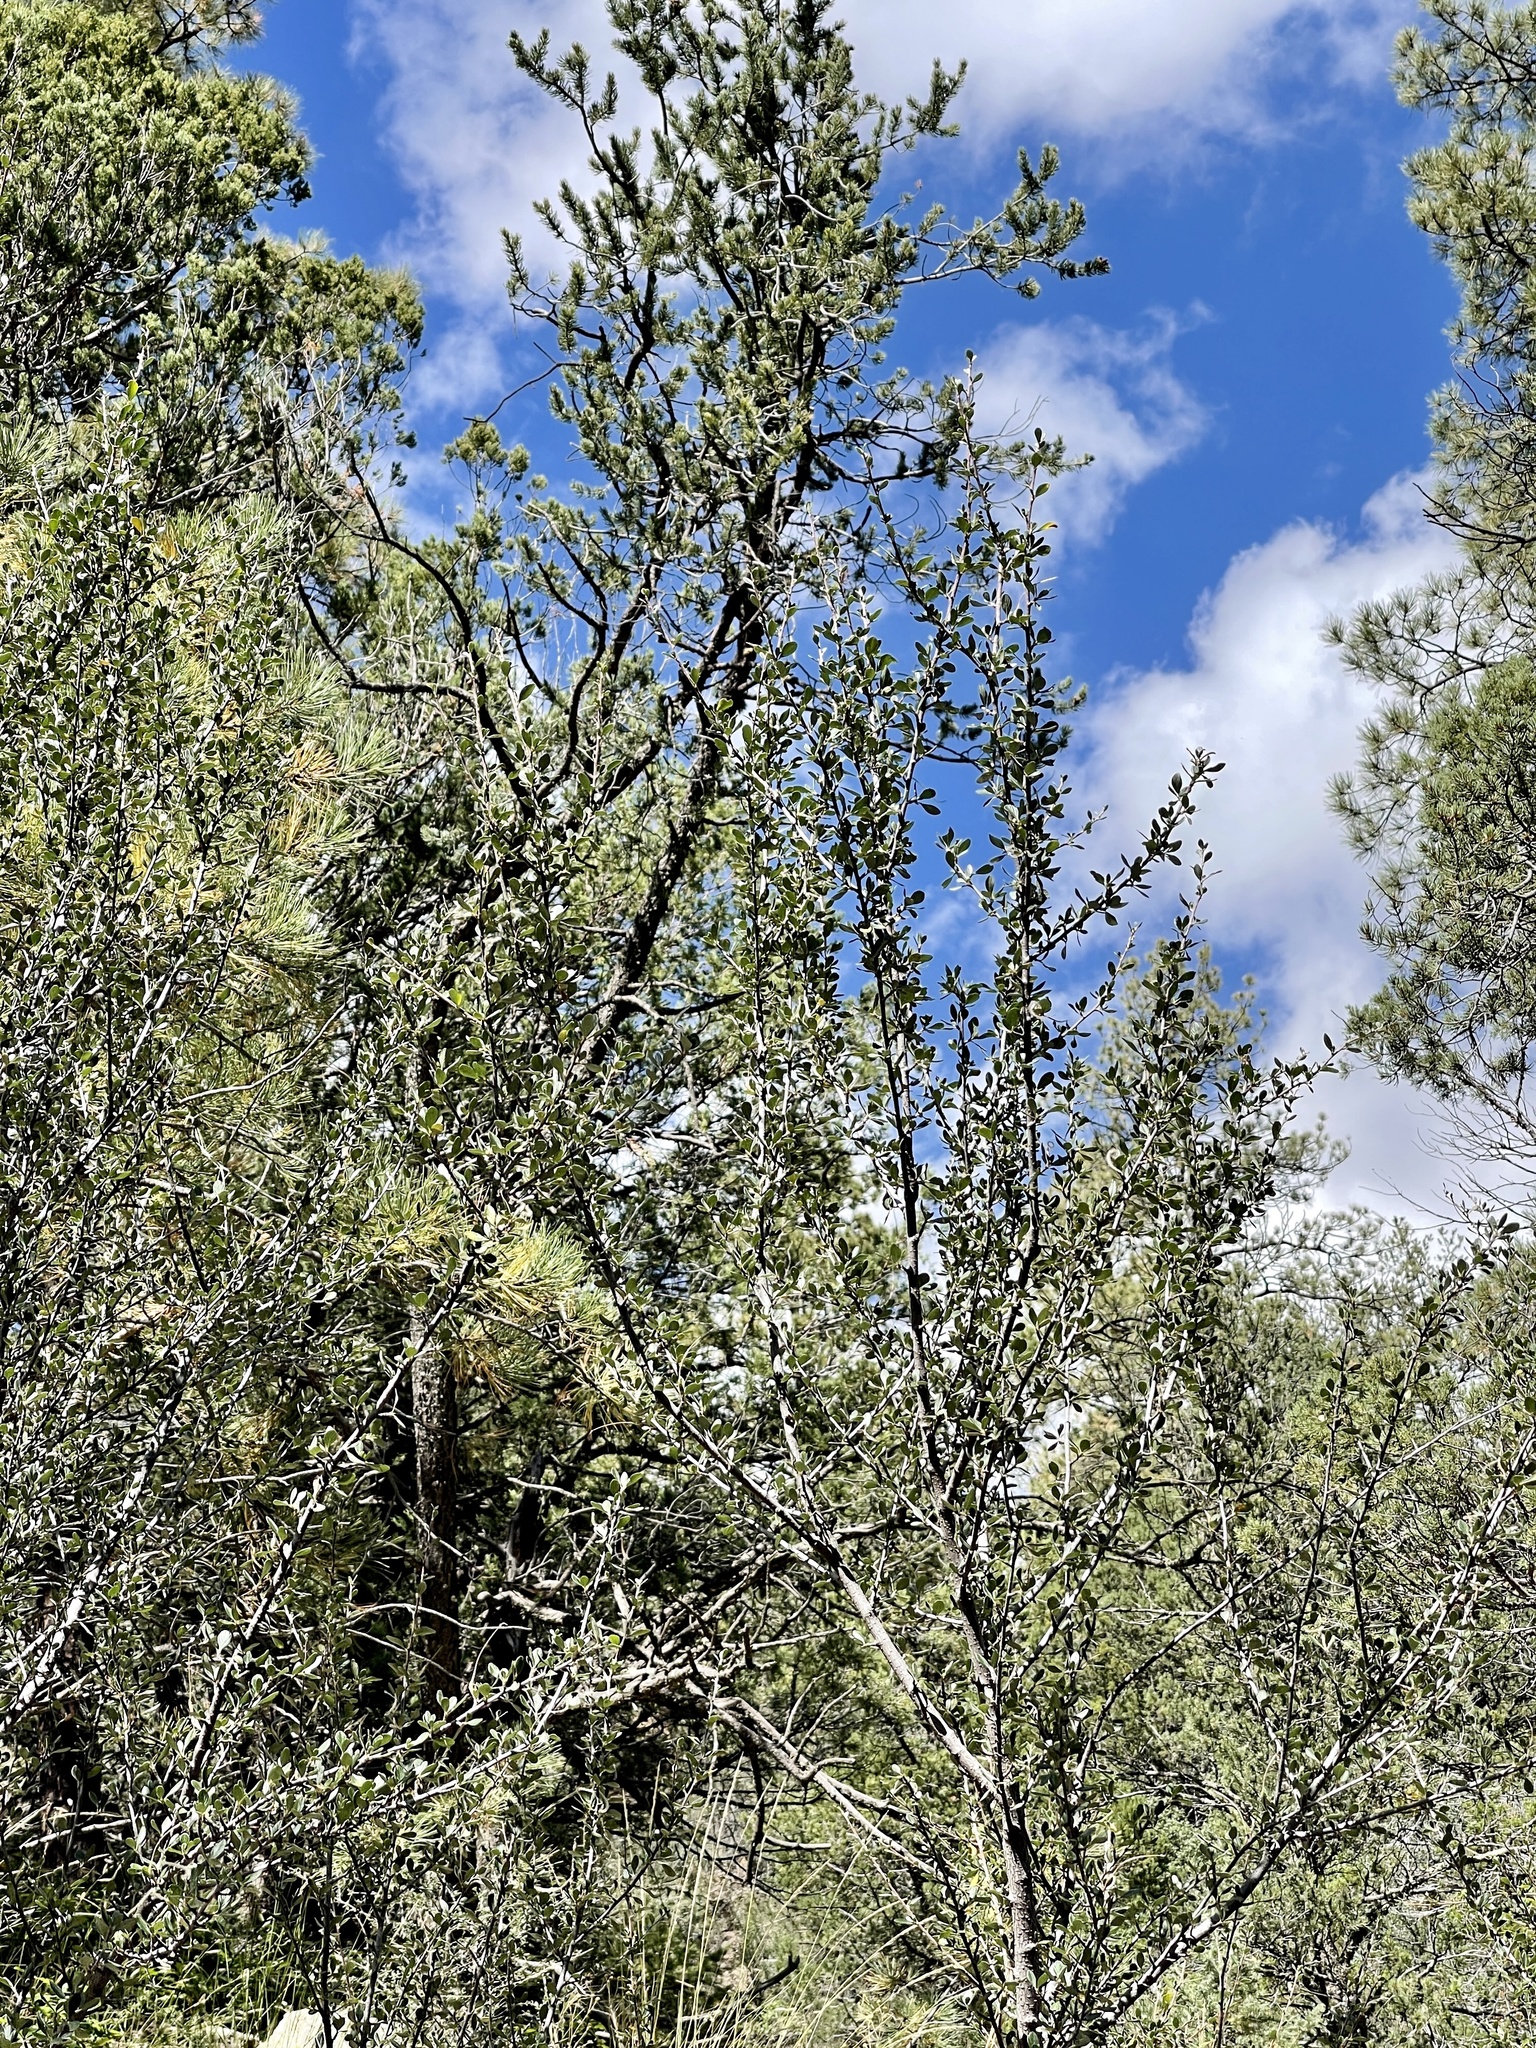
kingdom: Plantae
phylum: Tracheophyta
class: Magnoliopsida
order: Rosales
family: Rosaceae
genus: Cercocarpus
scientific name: Cercocarpus breviflorus
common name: Wright's mountain-mahogany
